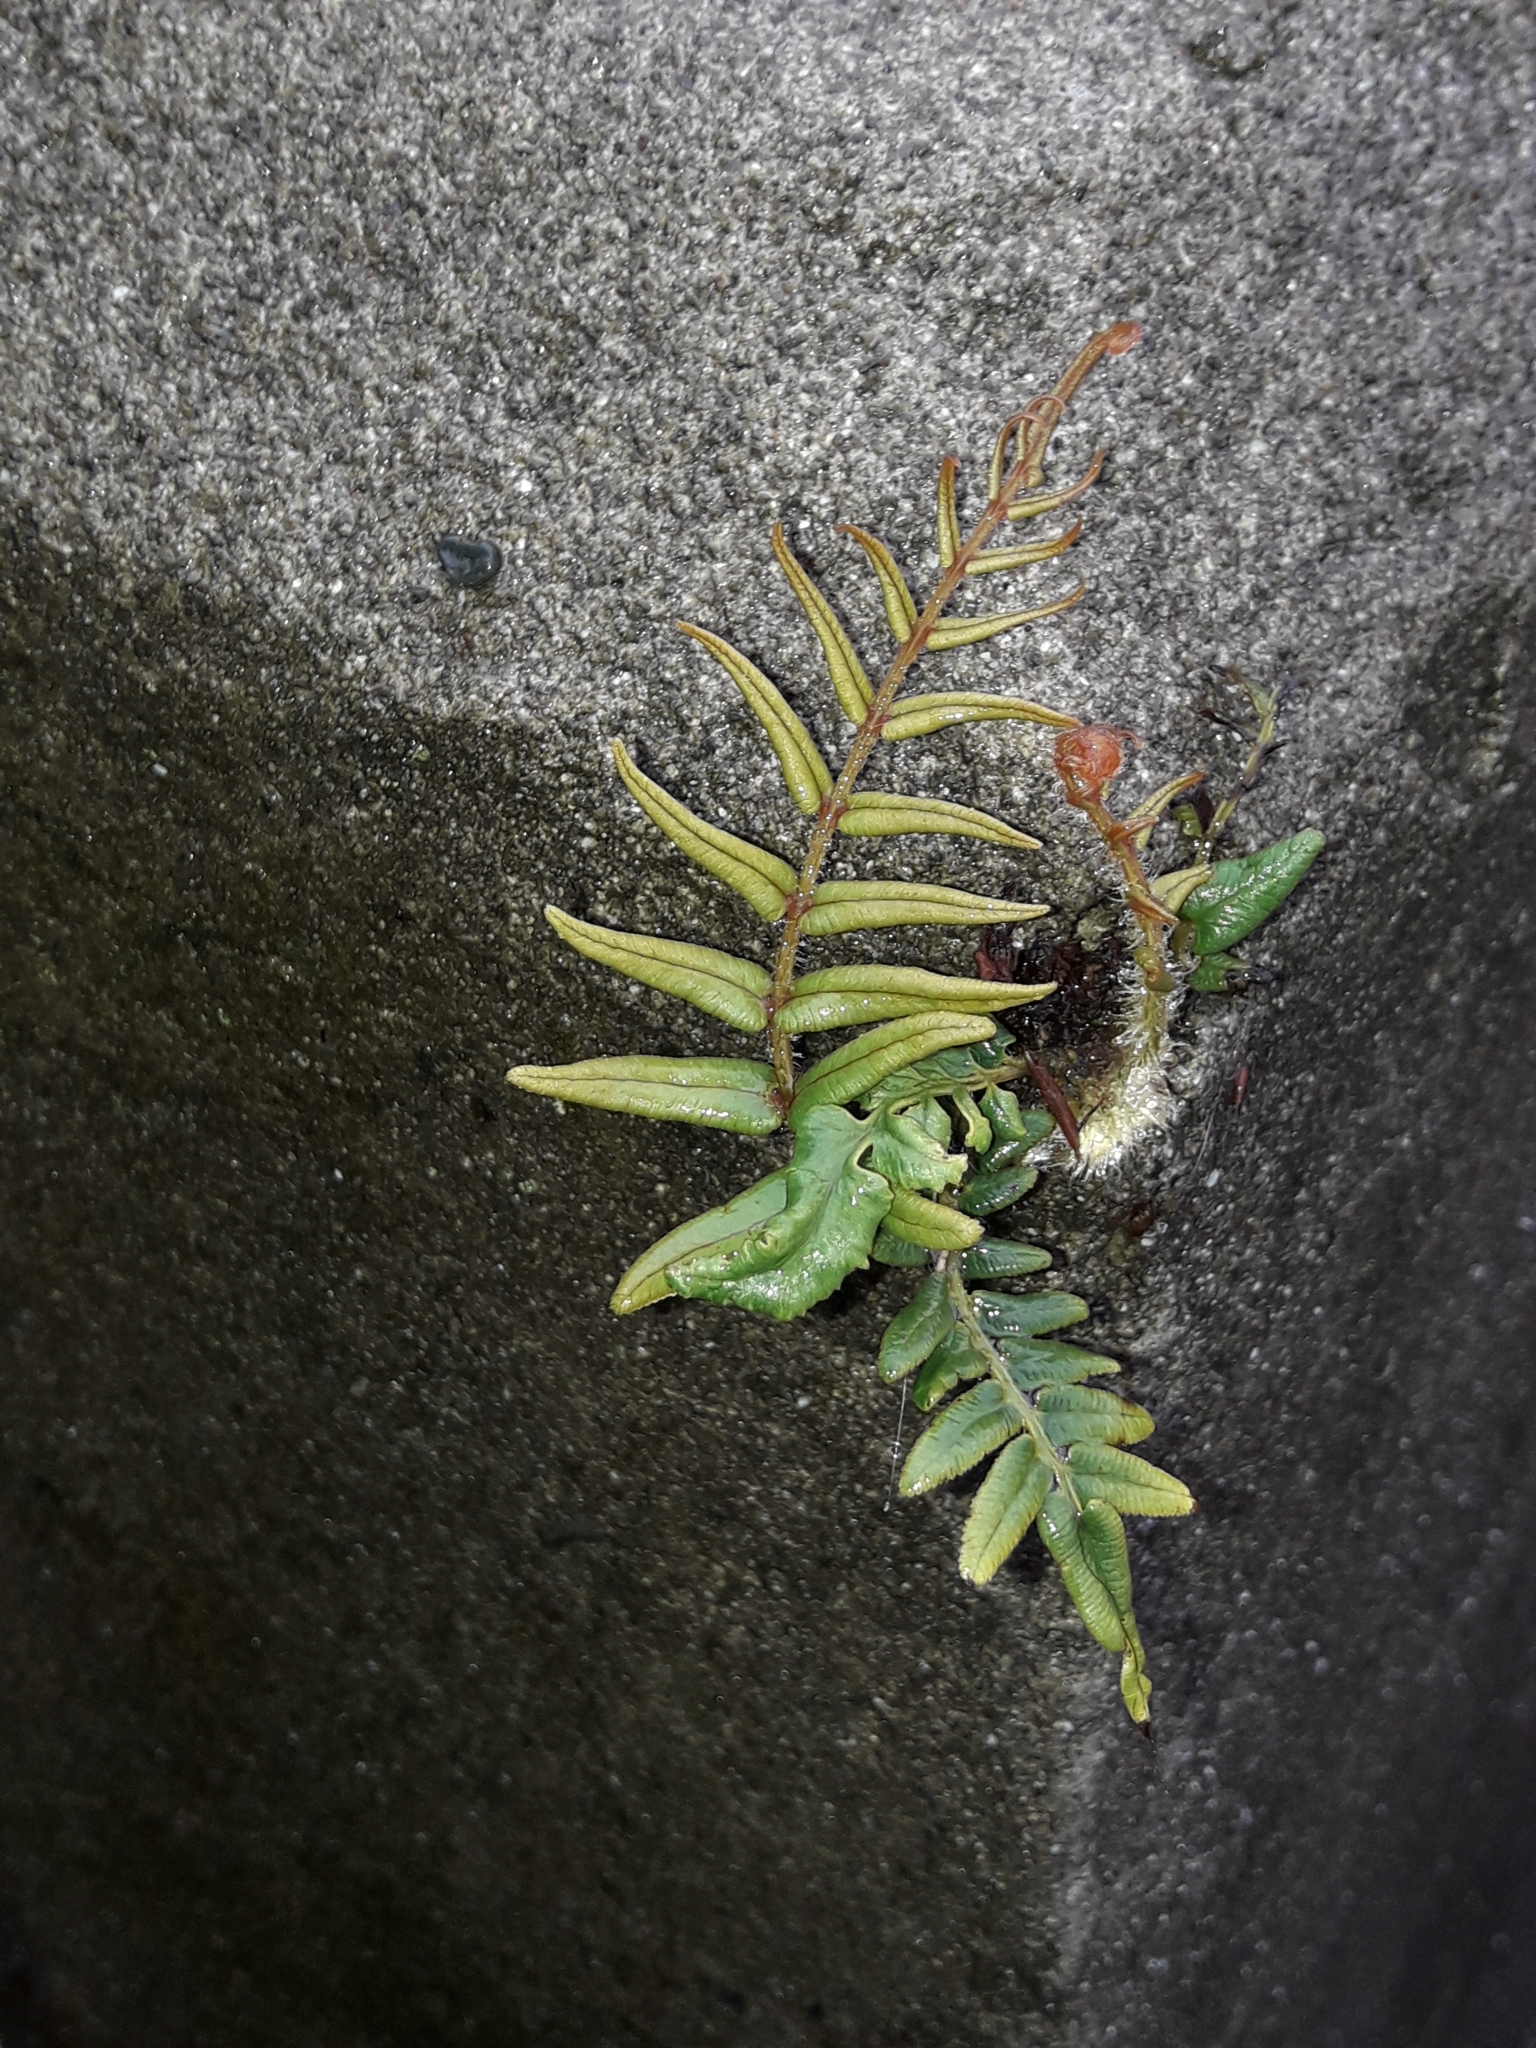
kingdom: Plantae
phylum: Tracheophyta
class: Polypodiopsida
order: Polypodiales
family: Pteridaceae
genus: Pteris
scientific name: Pteris vittata
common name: Ladder brake
